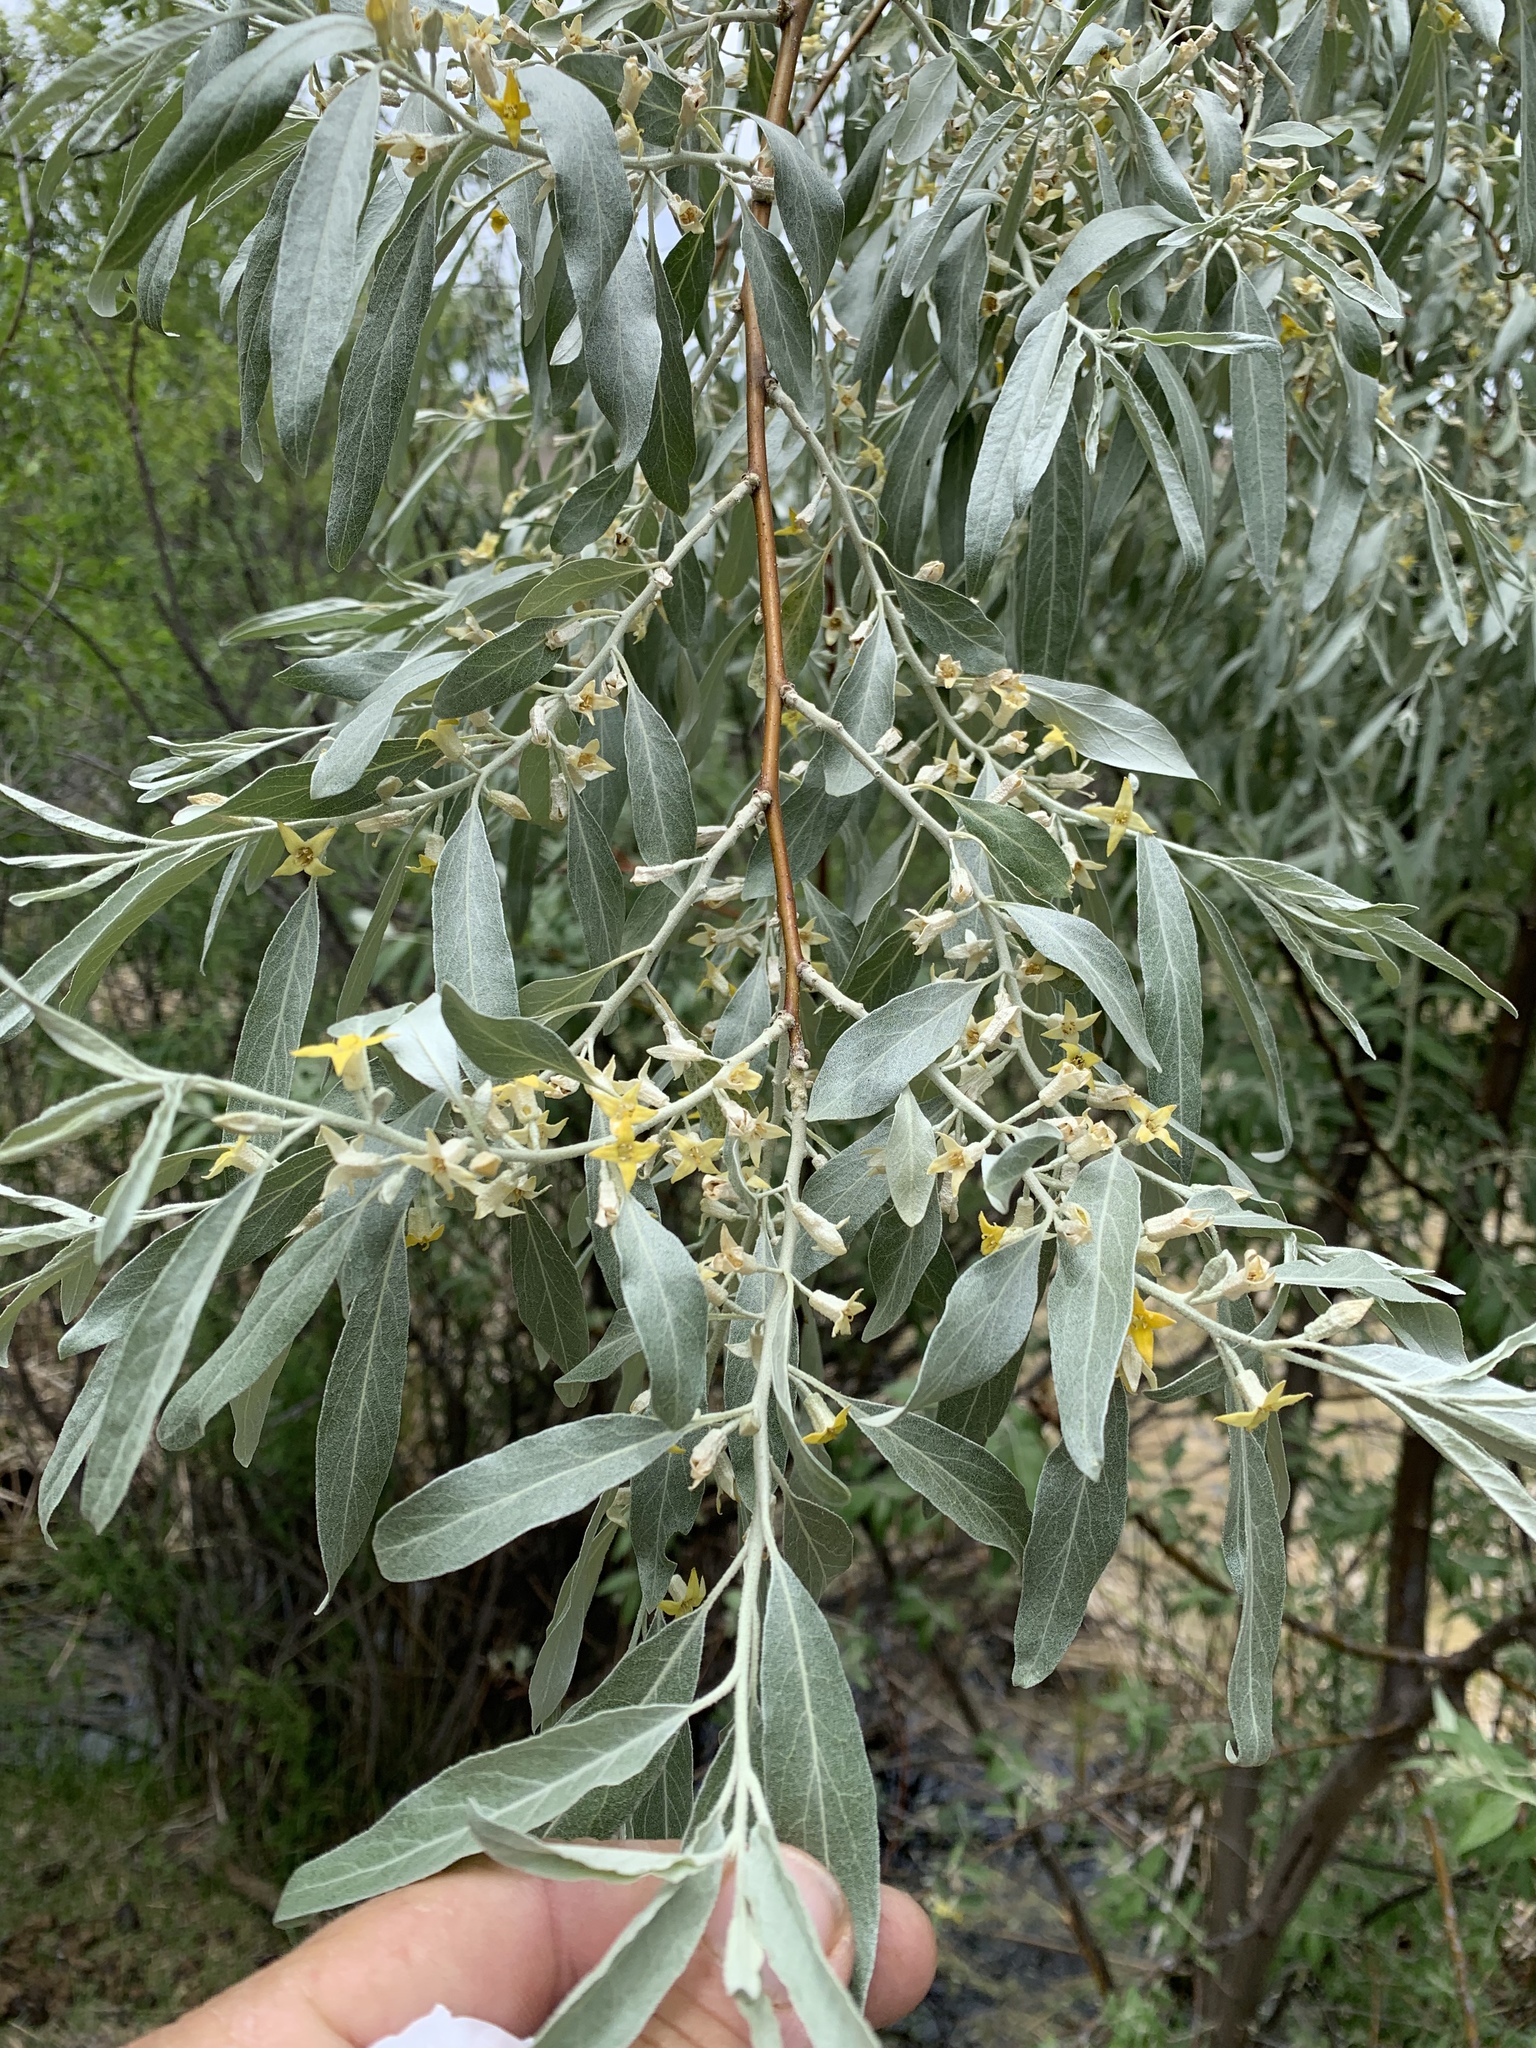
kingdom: Plantae
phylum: Tracheophyta
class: Magnoliopsida
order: Rosales
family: Elaeagnaceae
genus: Elaeagnus
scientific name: Elaeagnus angustifolia
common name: Russian olive
